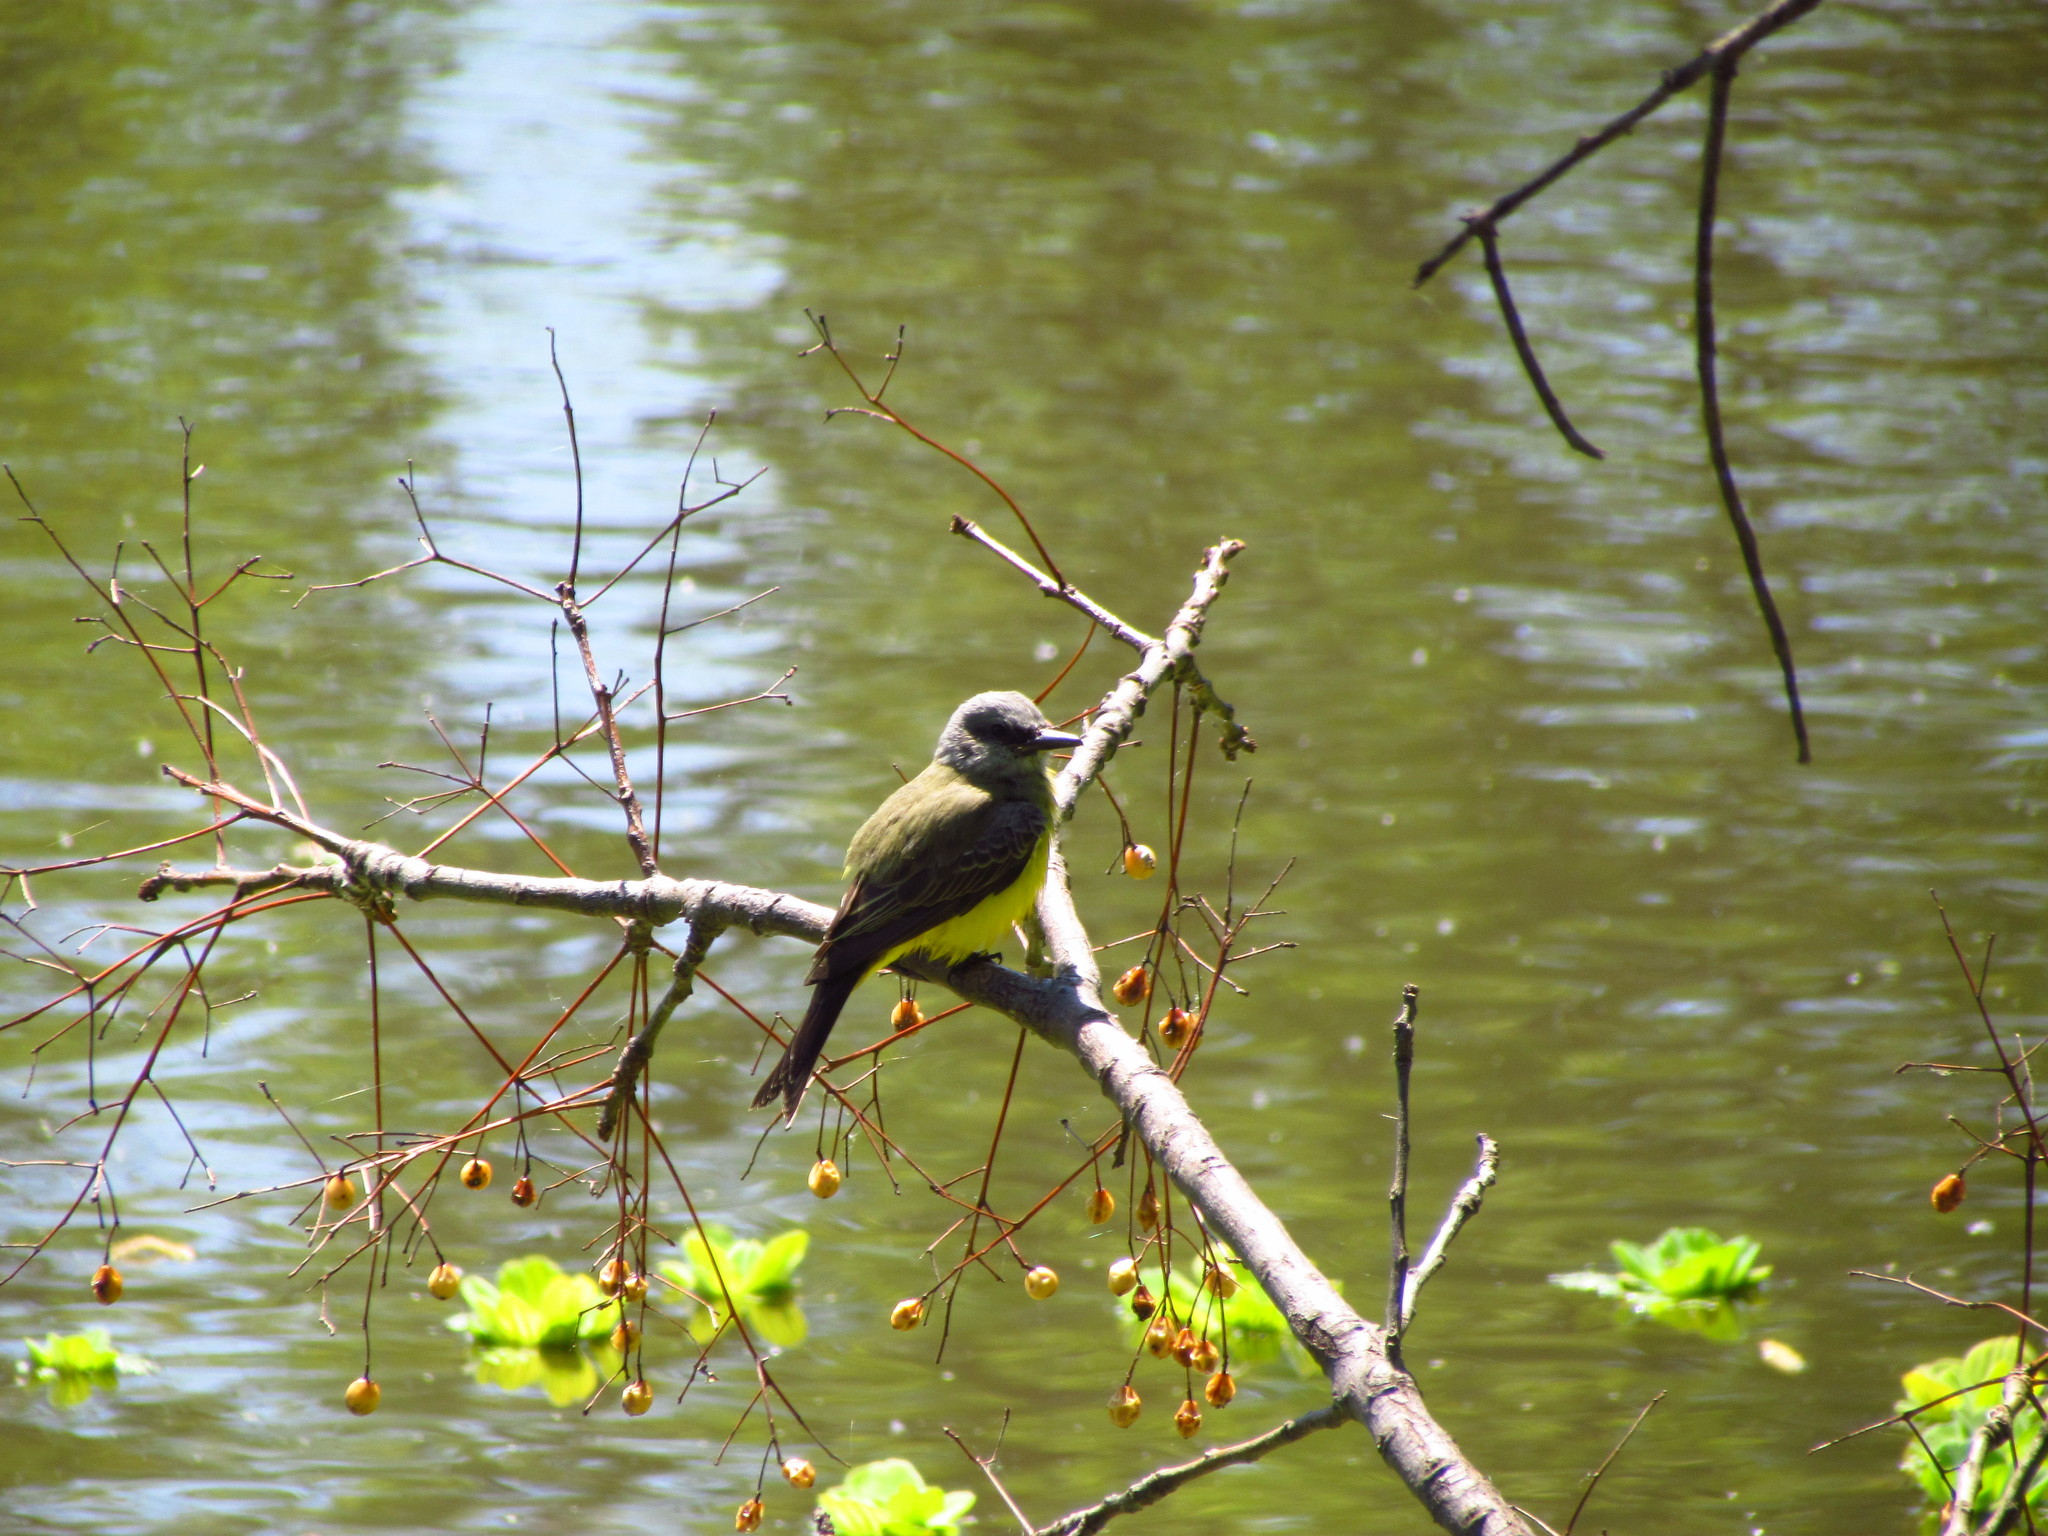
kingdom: Animalia
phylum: Chordata
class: Aves
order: Passeriformes
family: Tyrannidae
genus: Tyrannus
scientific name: Tyrannus melancholicus
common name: Tropical kingbird
